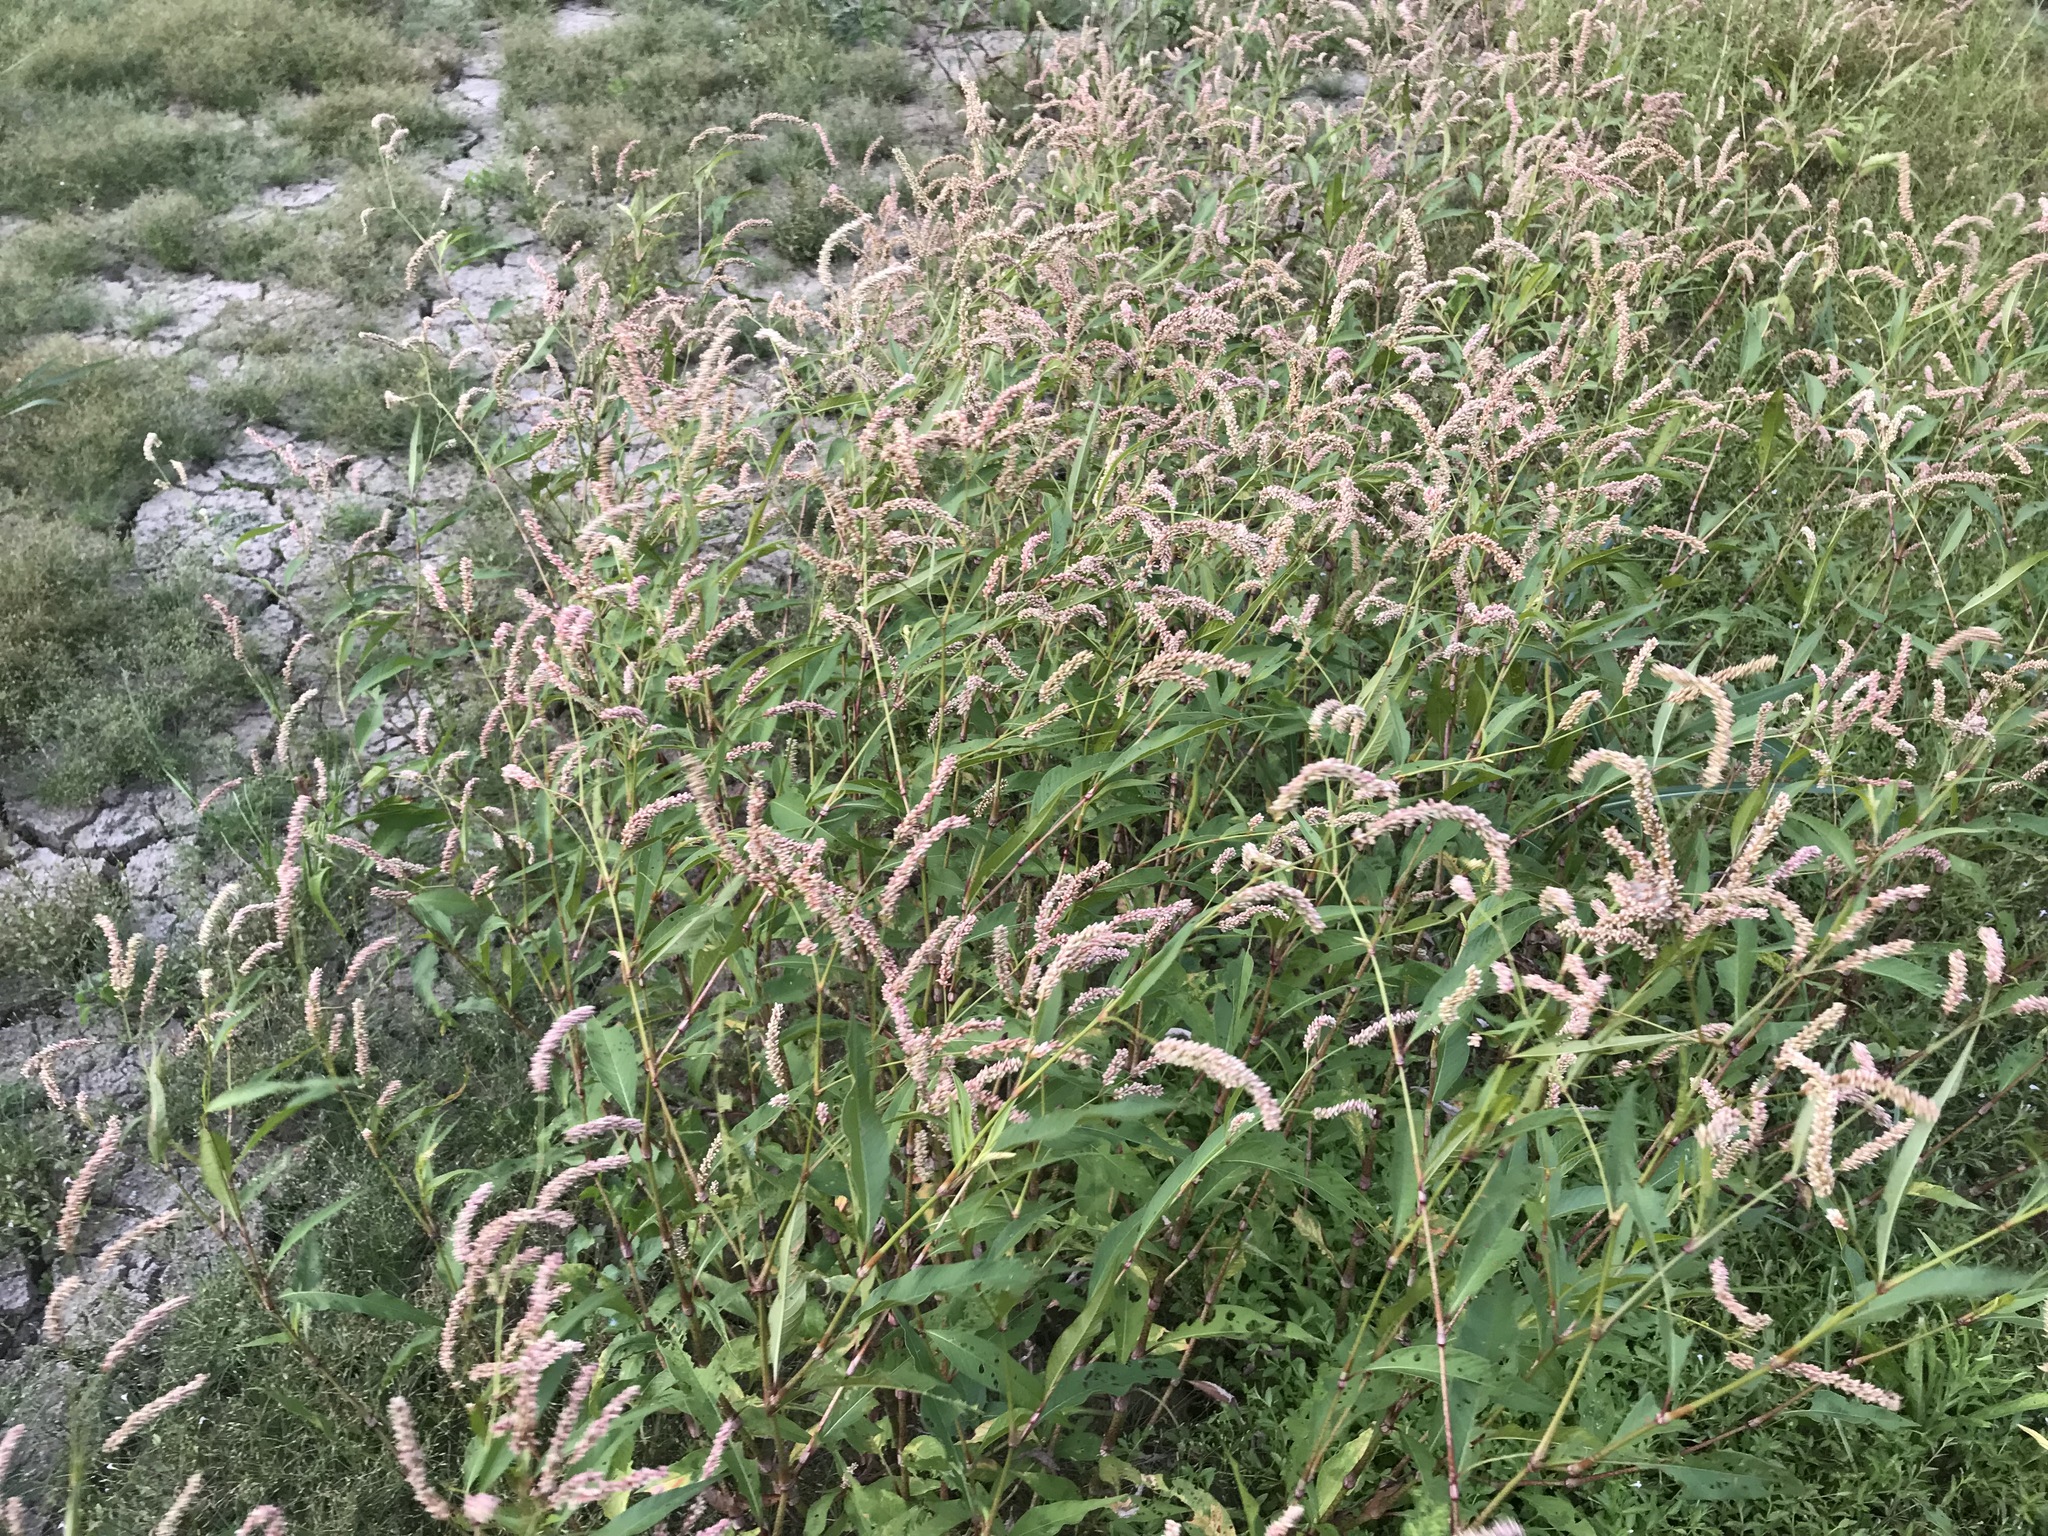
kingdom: Plantae
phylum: Tracheophyta
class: Magnoliopsida
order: Caryophyllales
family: Polygonaceae
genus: Persicaria
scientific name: Persicaria lapathifolia
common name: Curlytop knotweed
